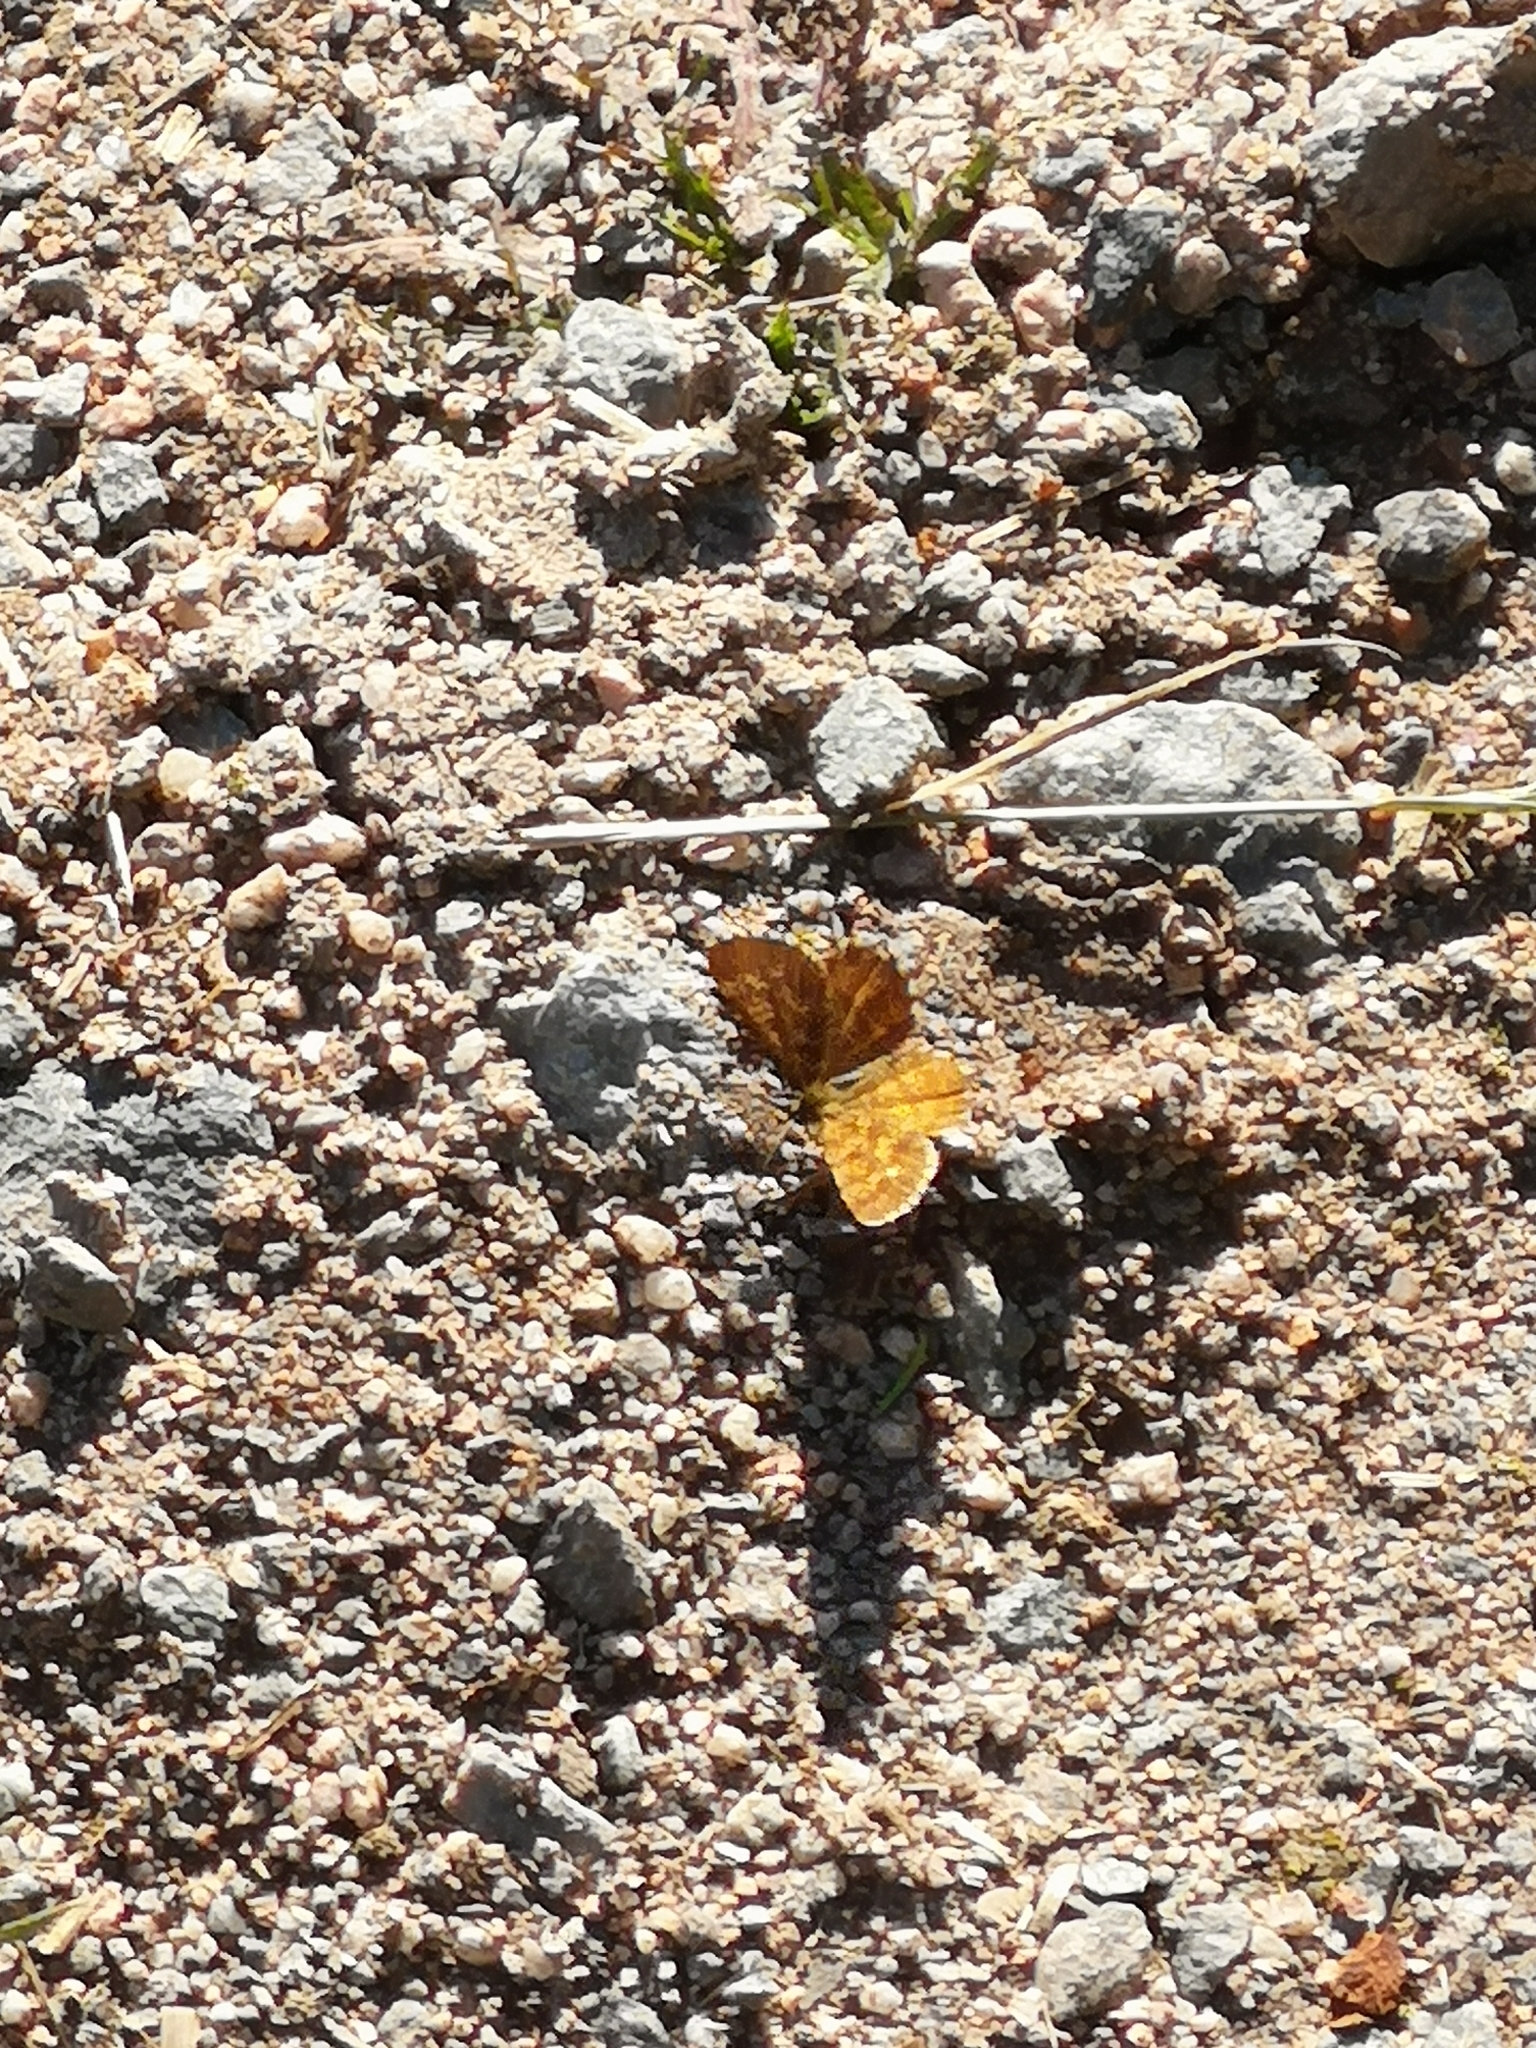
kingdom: Animalia
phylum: Arthropoda
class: Insecta
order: Lepidoptera
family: Geometridae
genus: Ematurga
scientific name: Ematurga atomaria
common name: Common heath
